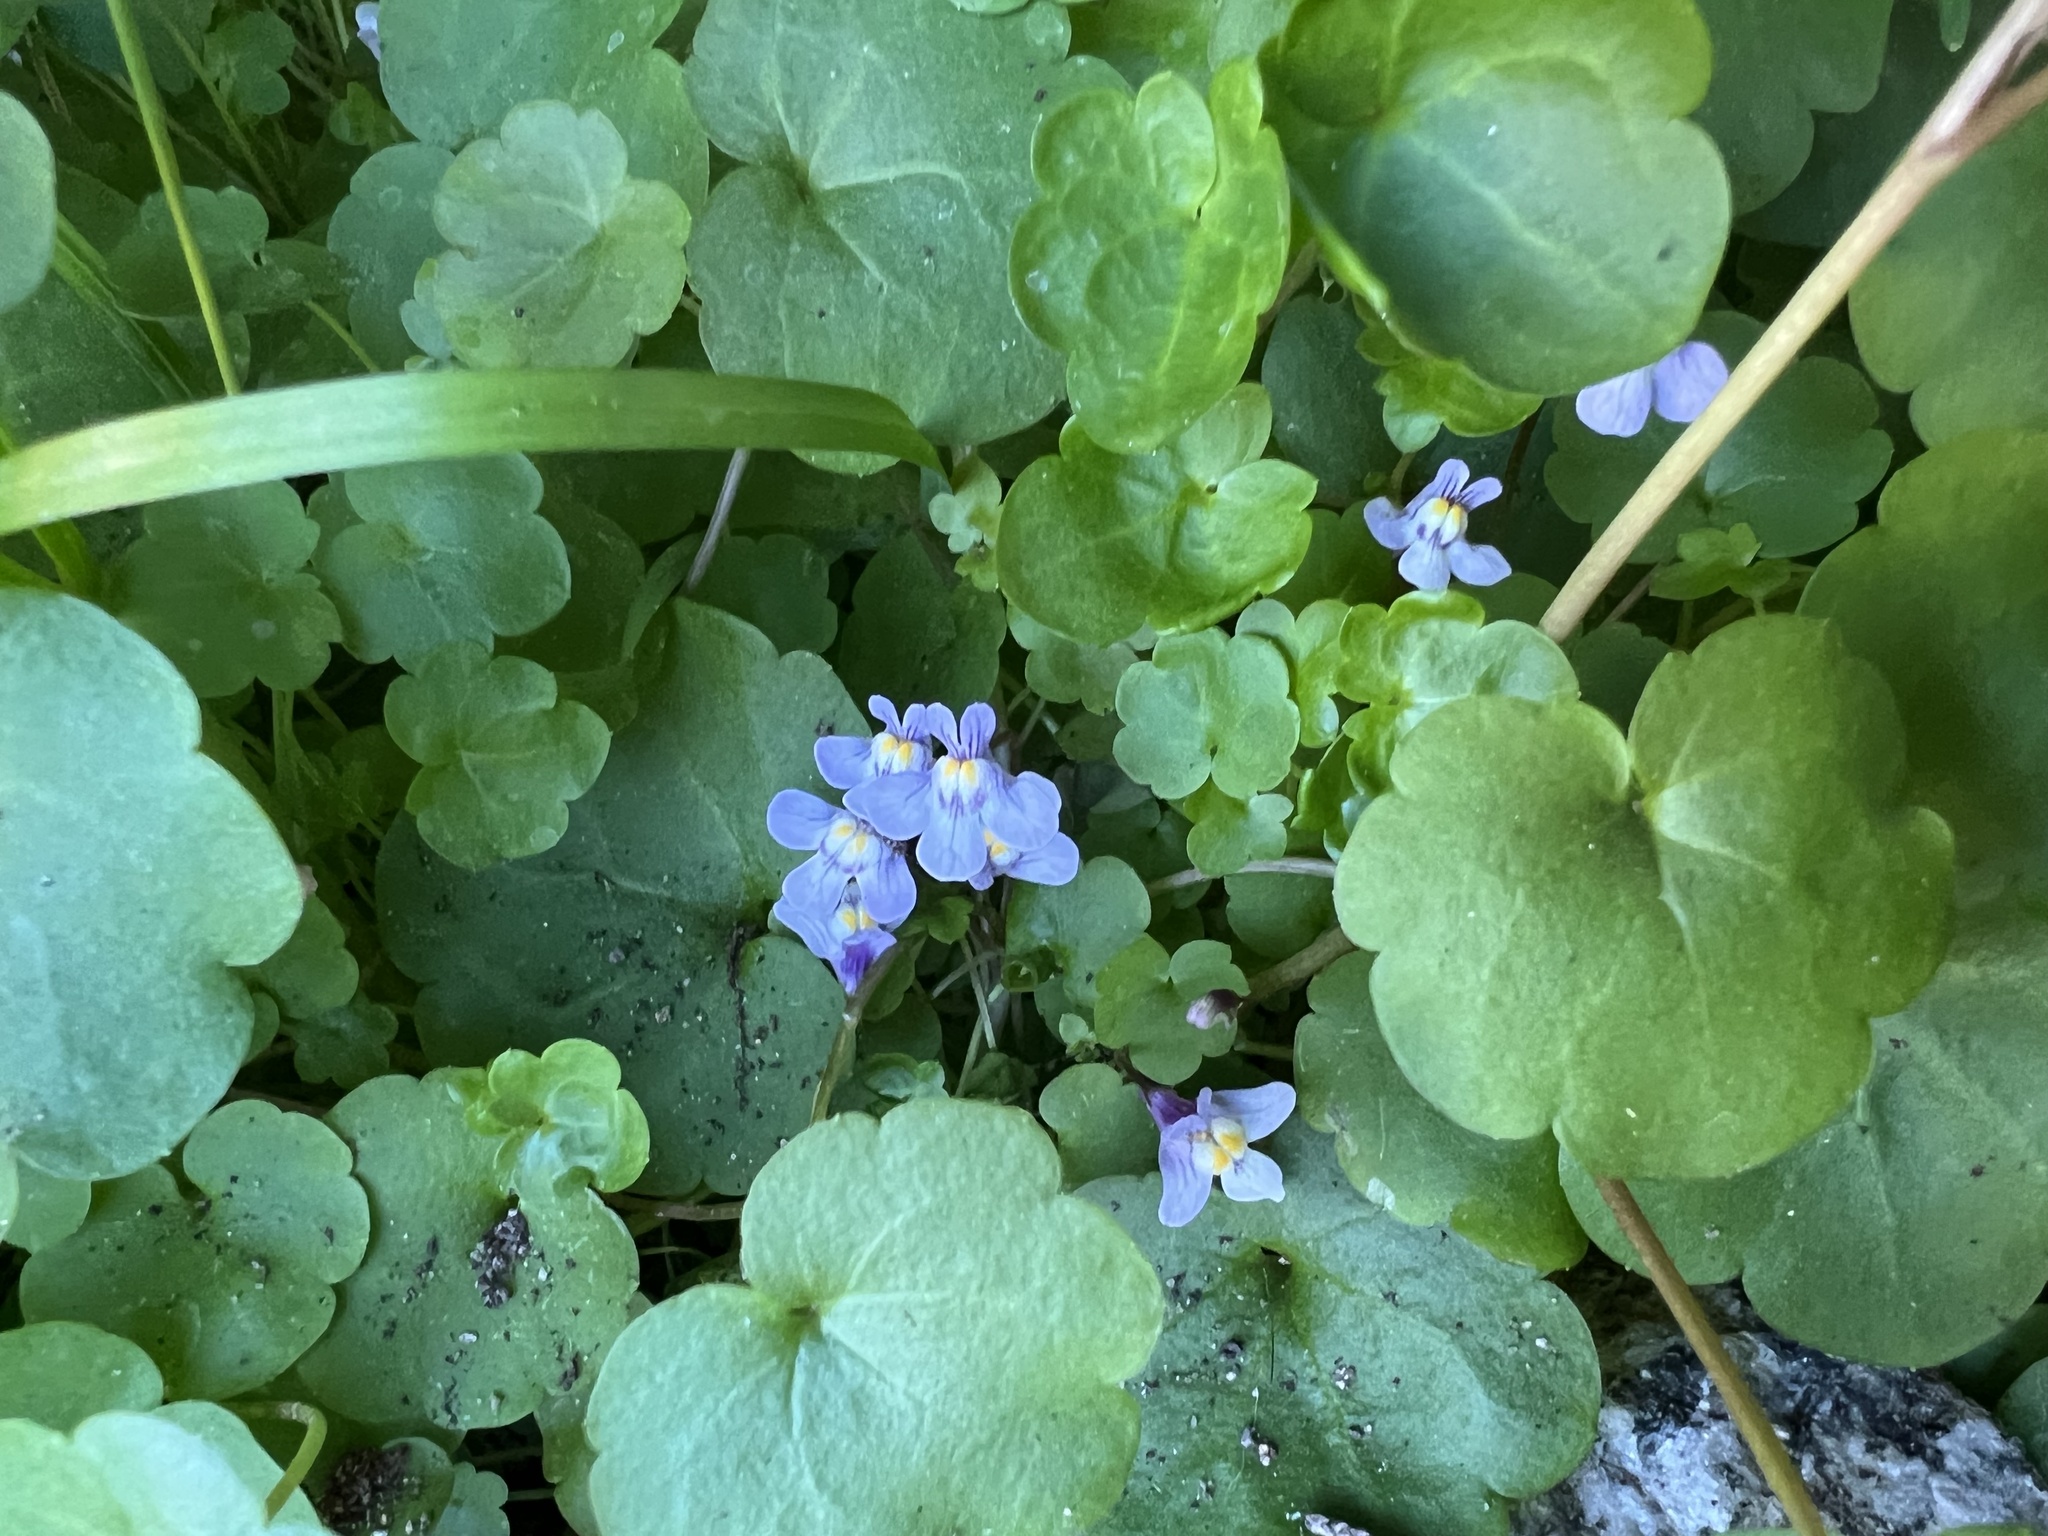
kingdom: Plantae
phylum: Tracheophyta
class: Magnoliopsida
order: Lamiales
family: Plantaginaceae
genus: Cymbalaria
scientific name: Cymbalaria muralis
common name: Ivy-leaved toadflax
